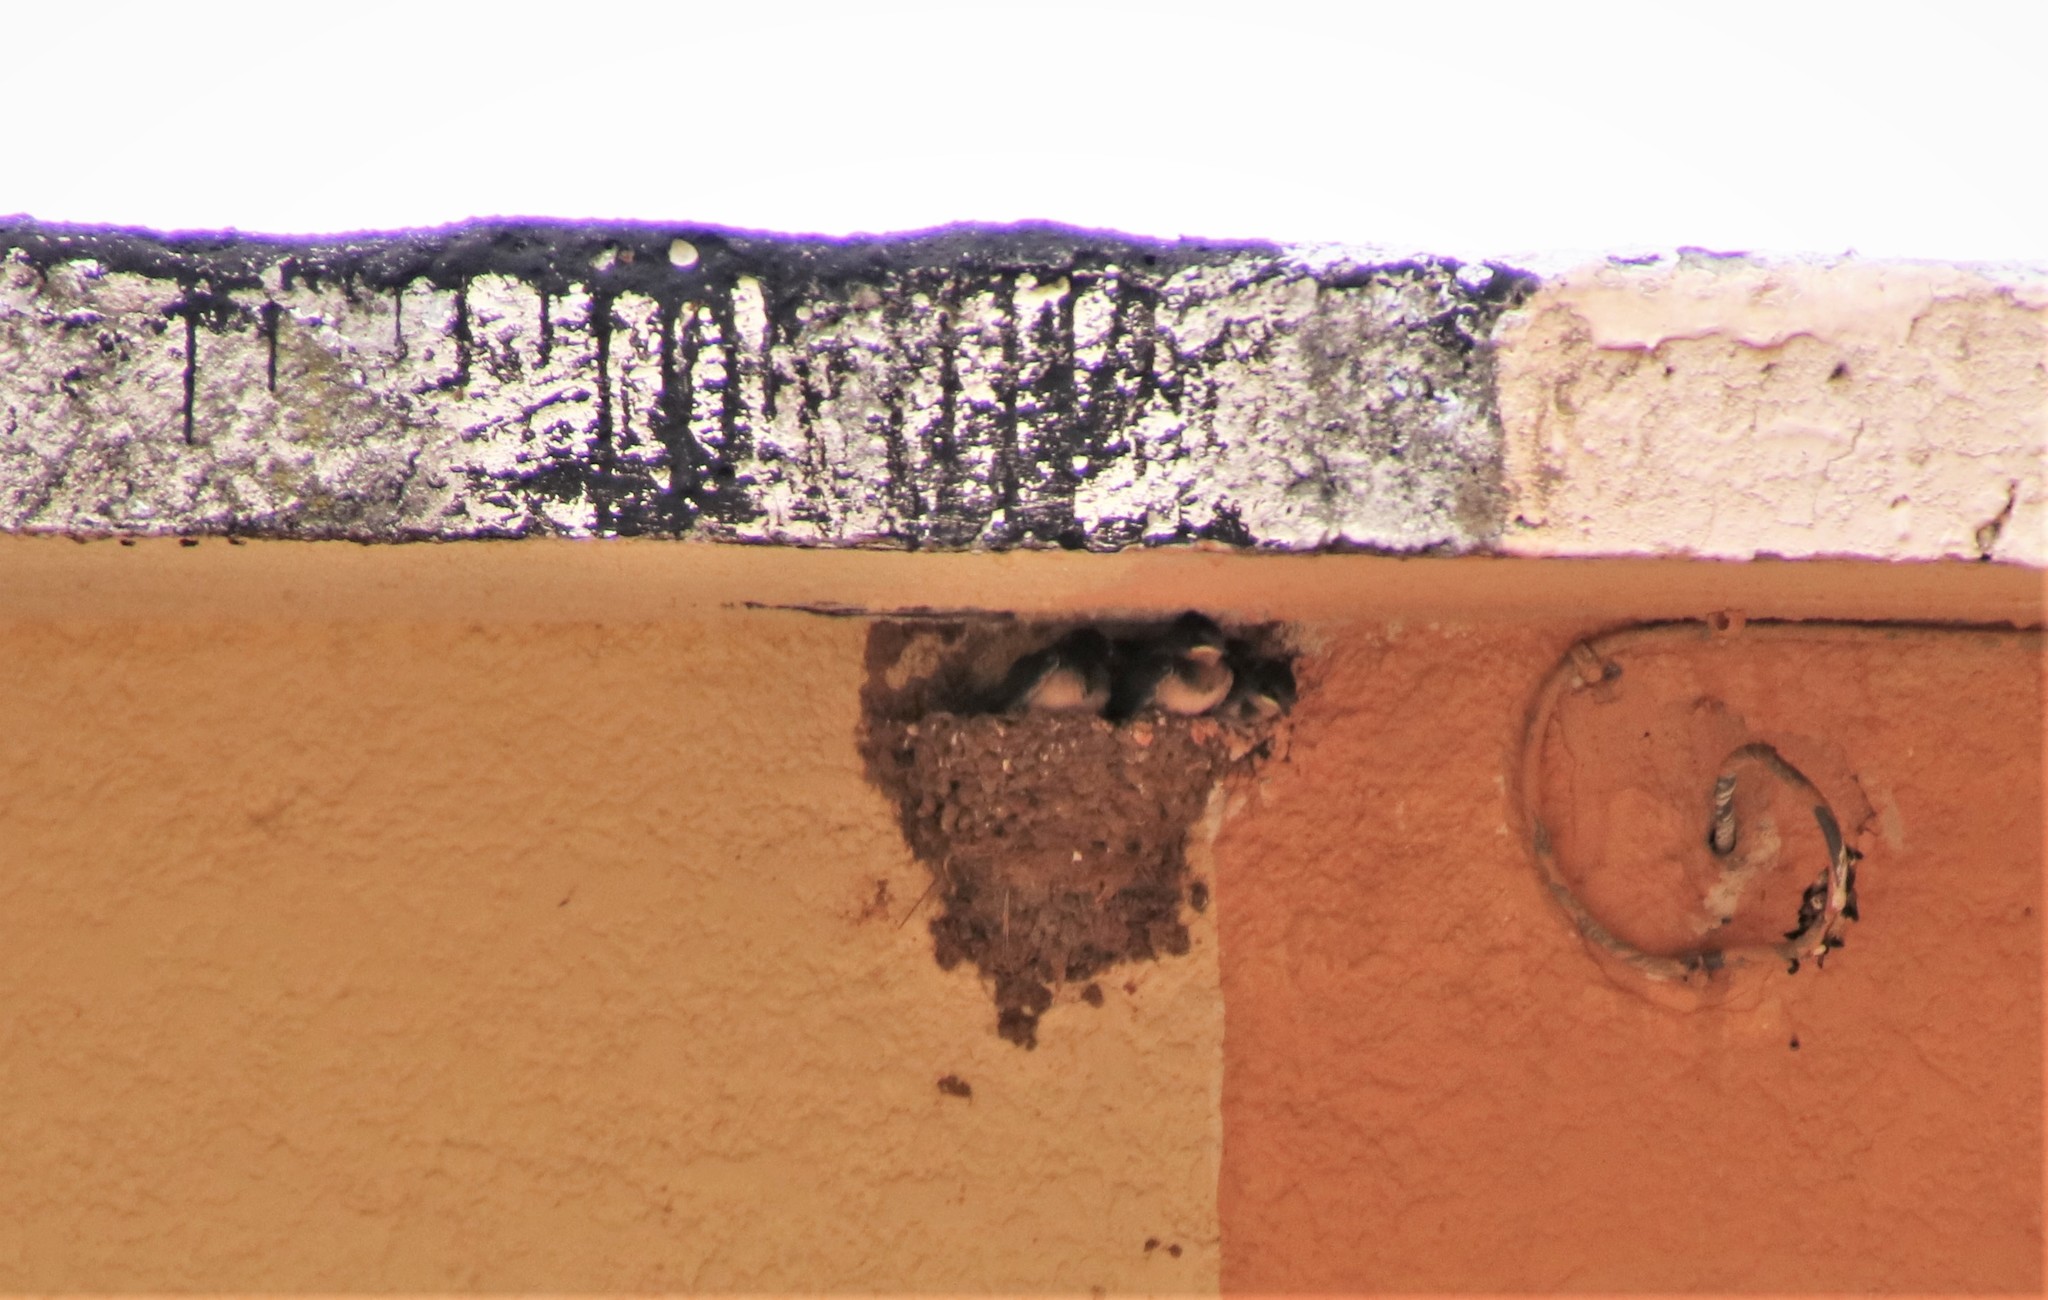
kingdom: Animalia
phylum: Chordata
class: Aves
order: Passeriformes
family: Hirundinidae
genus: Hirundo
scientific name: Hirundo rustica
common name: Barn swallow
